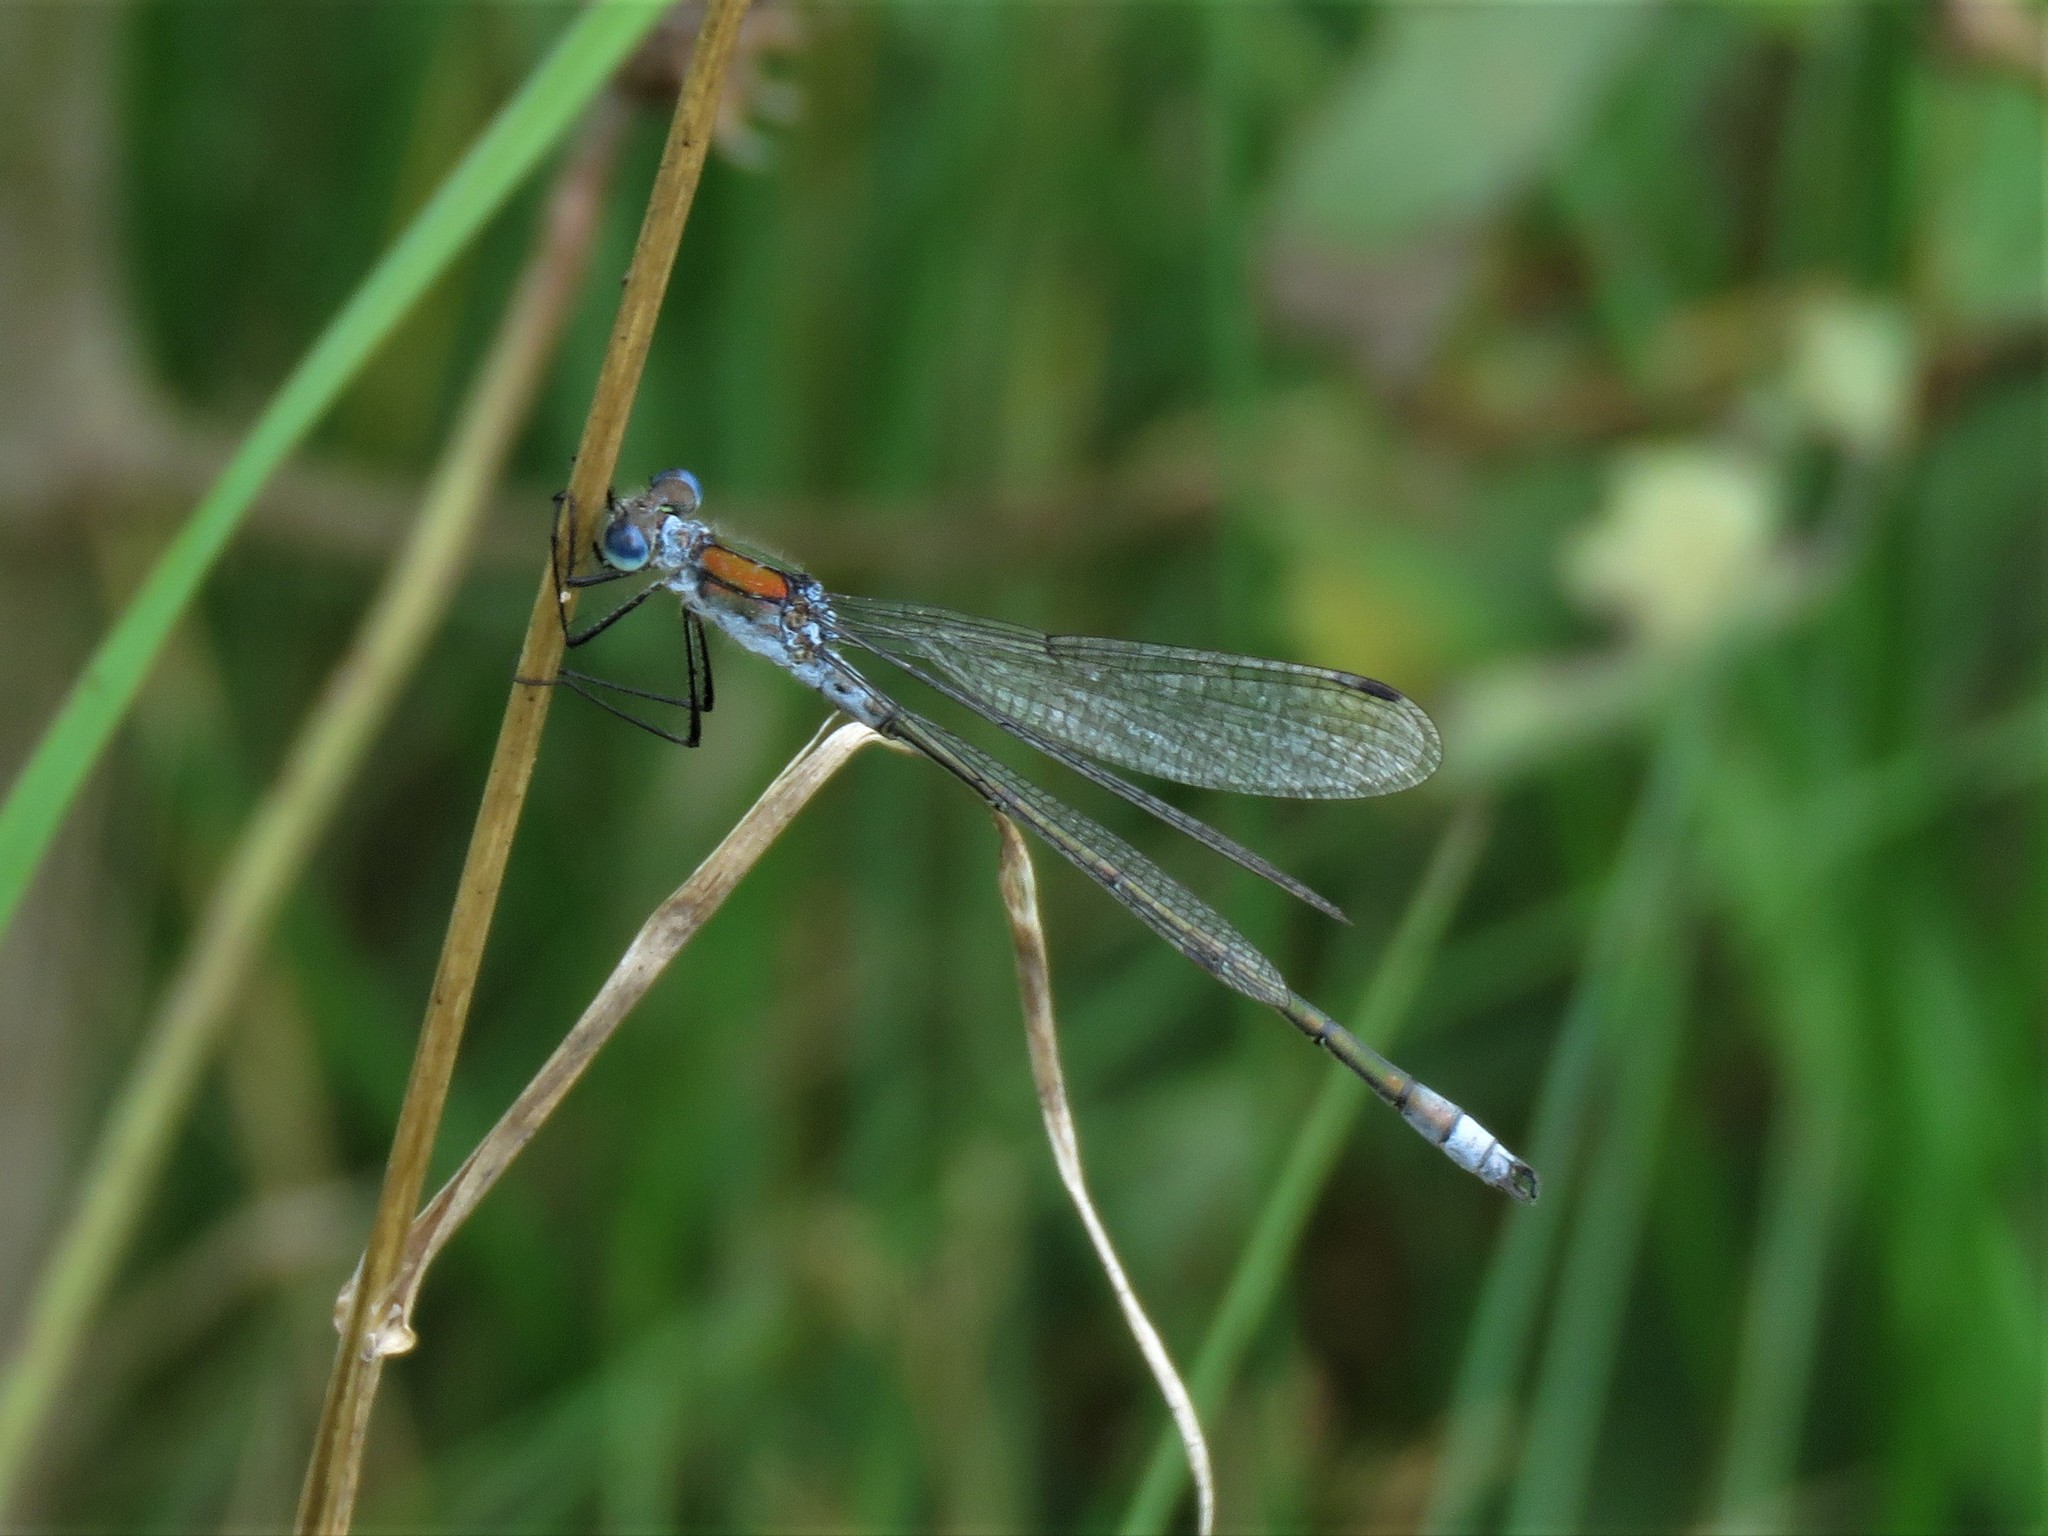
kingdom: Animalia
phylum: Arthropoda
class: Insecta
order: Odonata
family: Lestidae
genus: Lestes
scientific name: Lestes sponsa
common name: Common spreadwing
